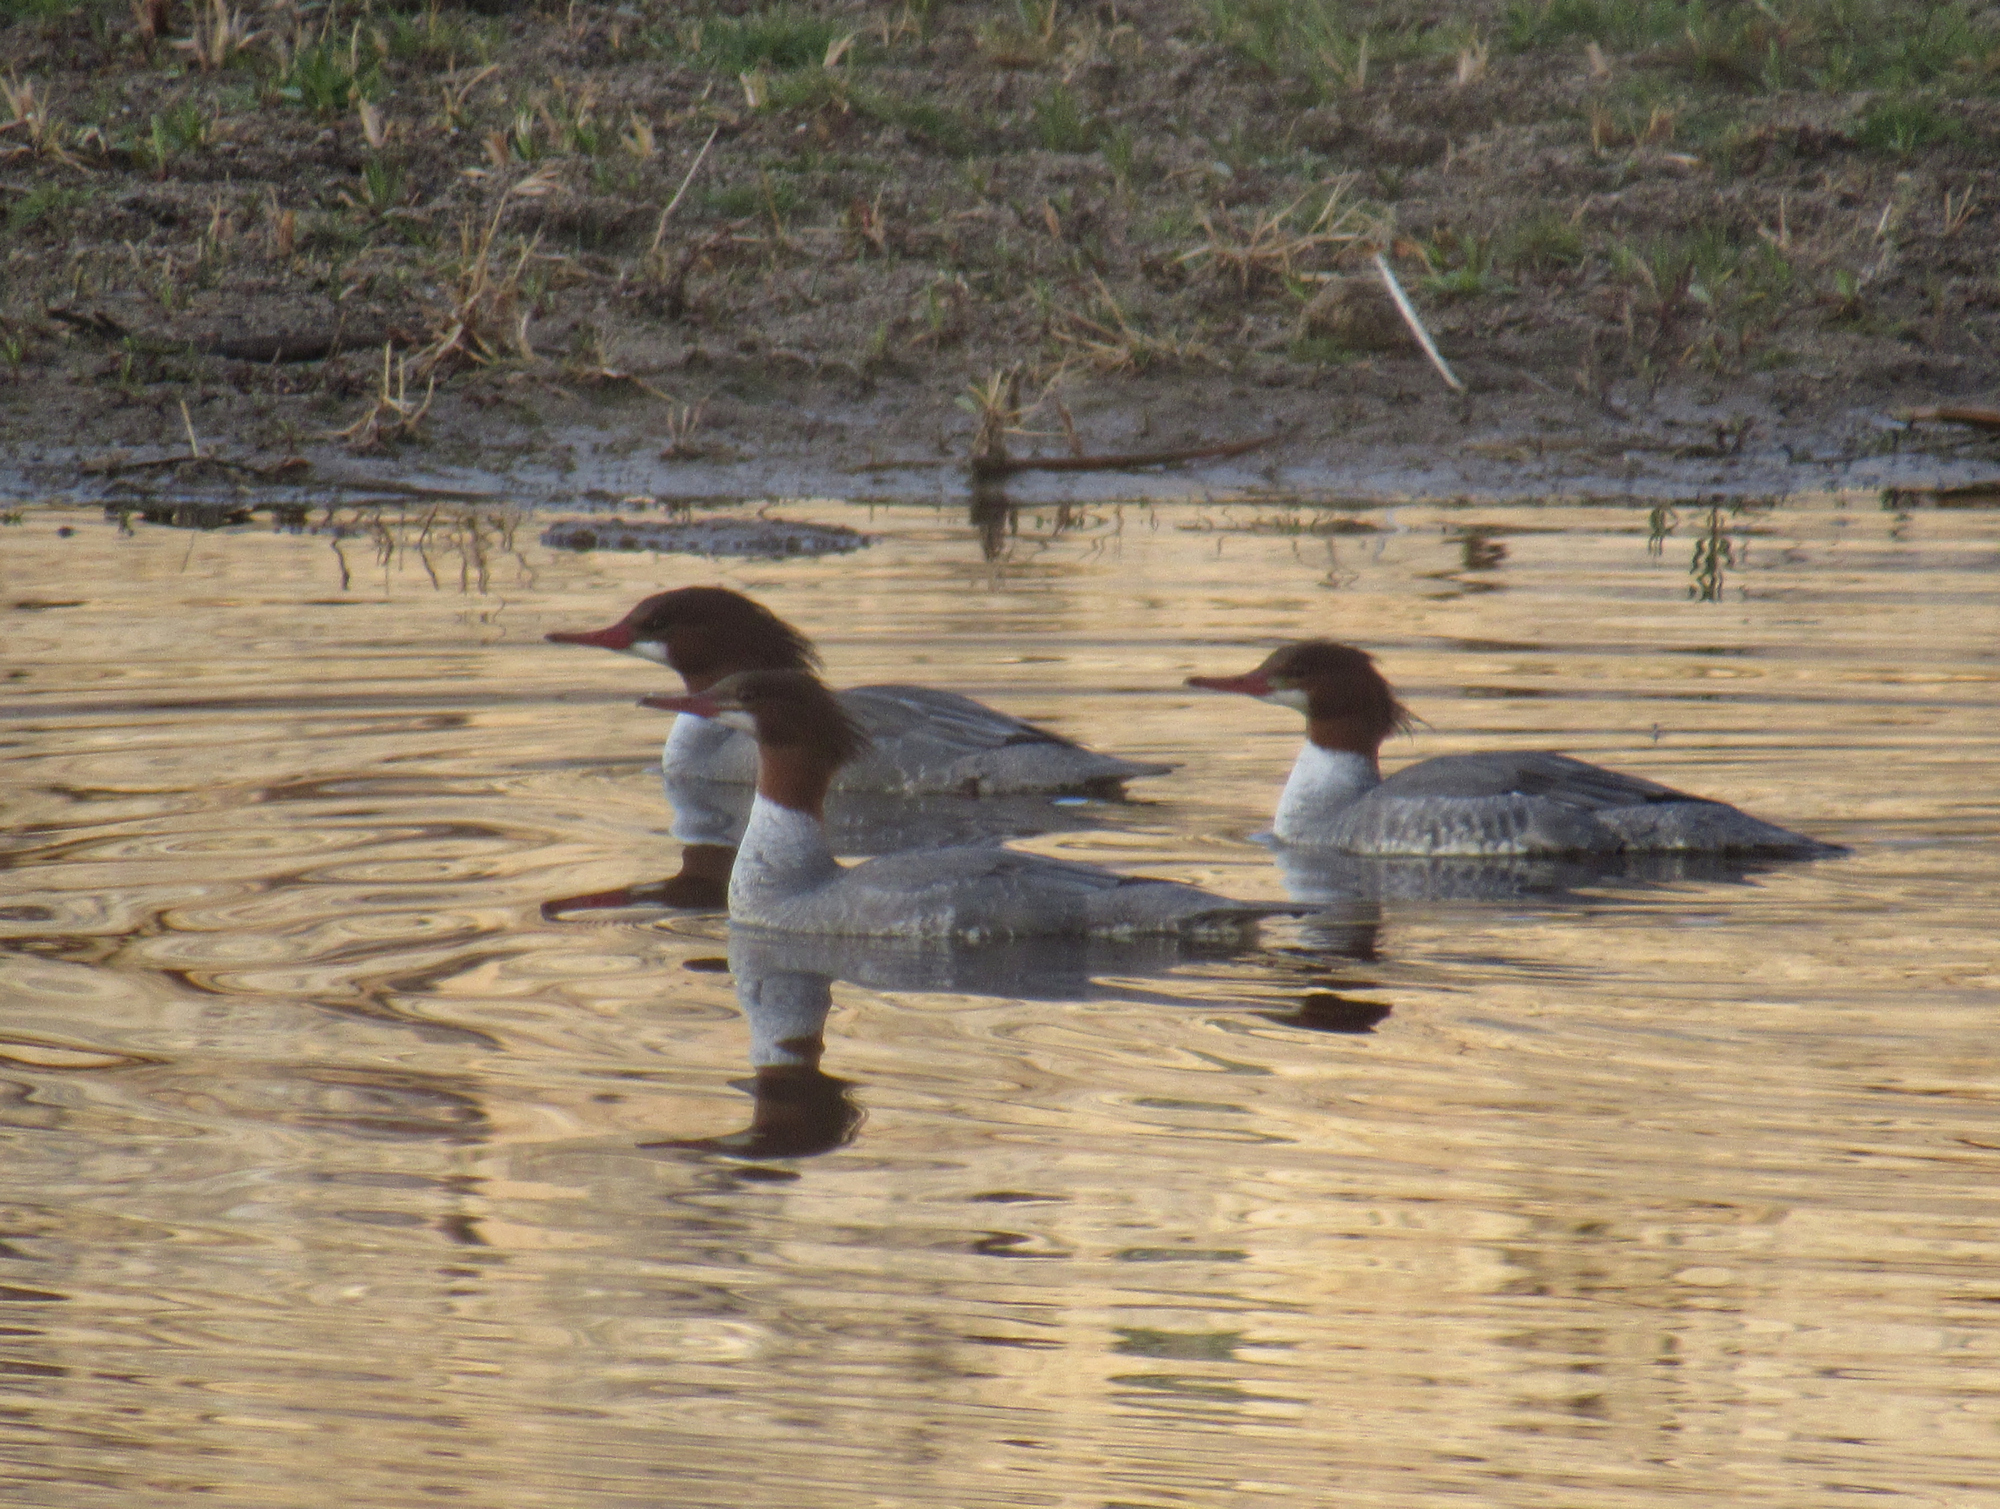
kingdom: Animalia
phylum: Chordata
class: Aves
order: Anseriformes
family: Anatidae
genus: Mergus
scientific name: Mergus merganser
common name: Common merganser
